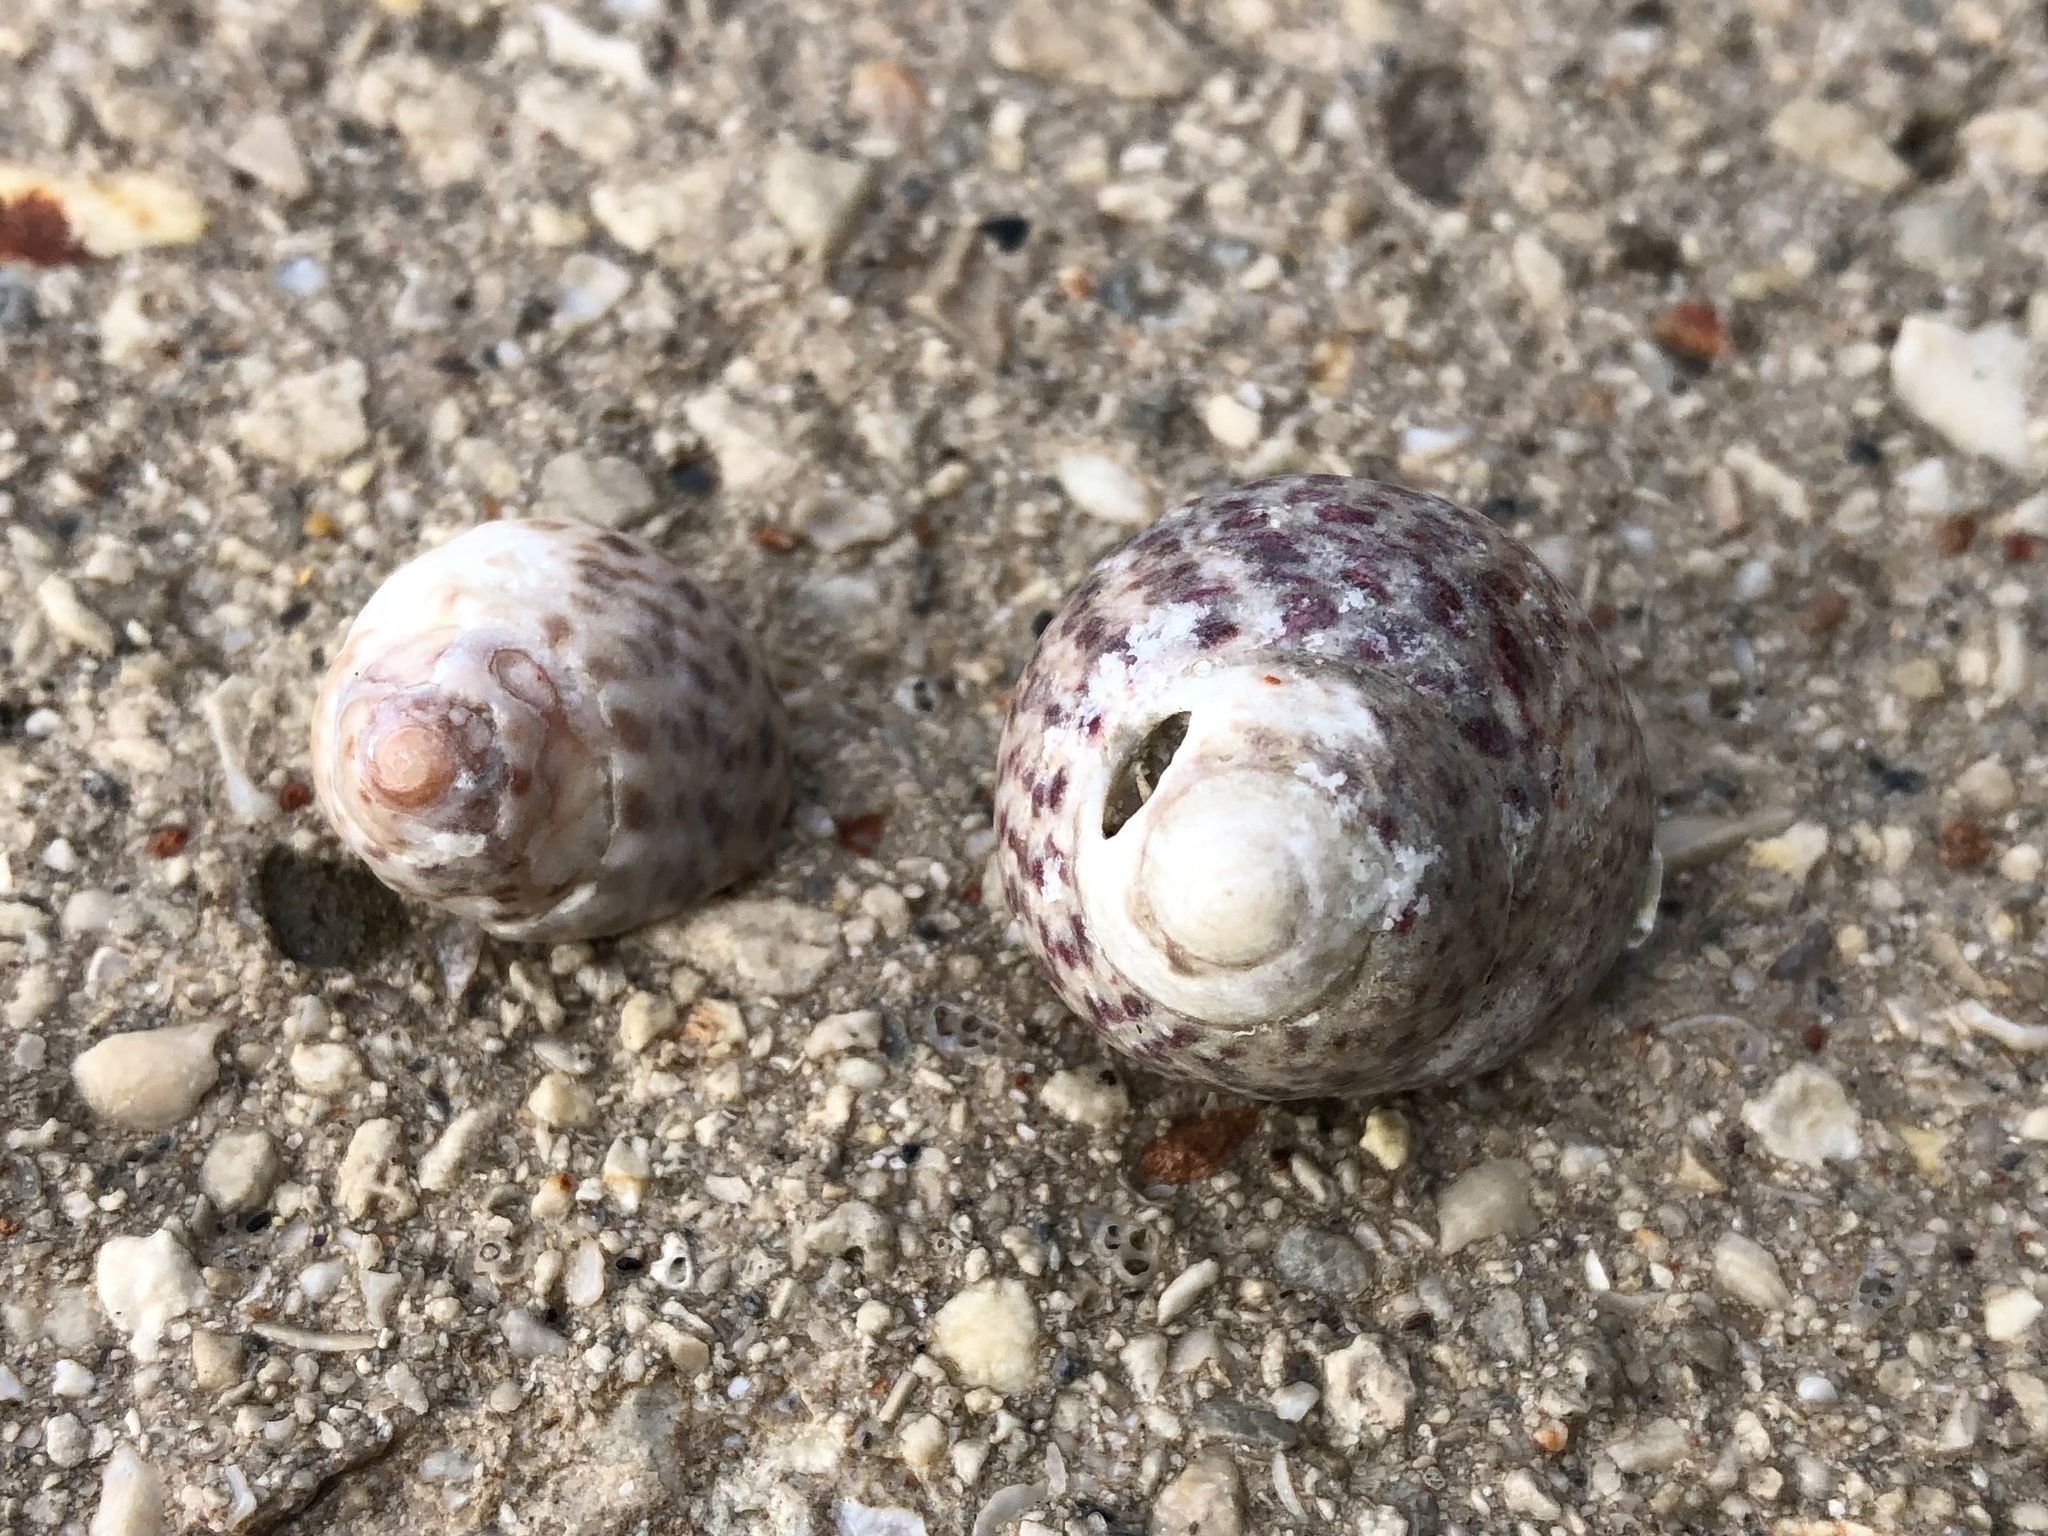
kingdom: Animalia
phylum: Mollusca
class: Gastropoda
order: Trochida
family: Trochidae
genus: Phorcus
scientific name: Phorcus turbinatus
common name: Turbinate monodont
